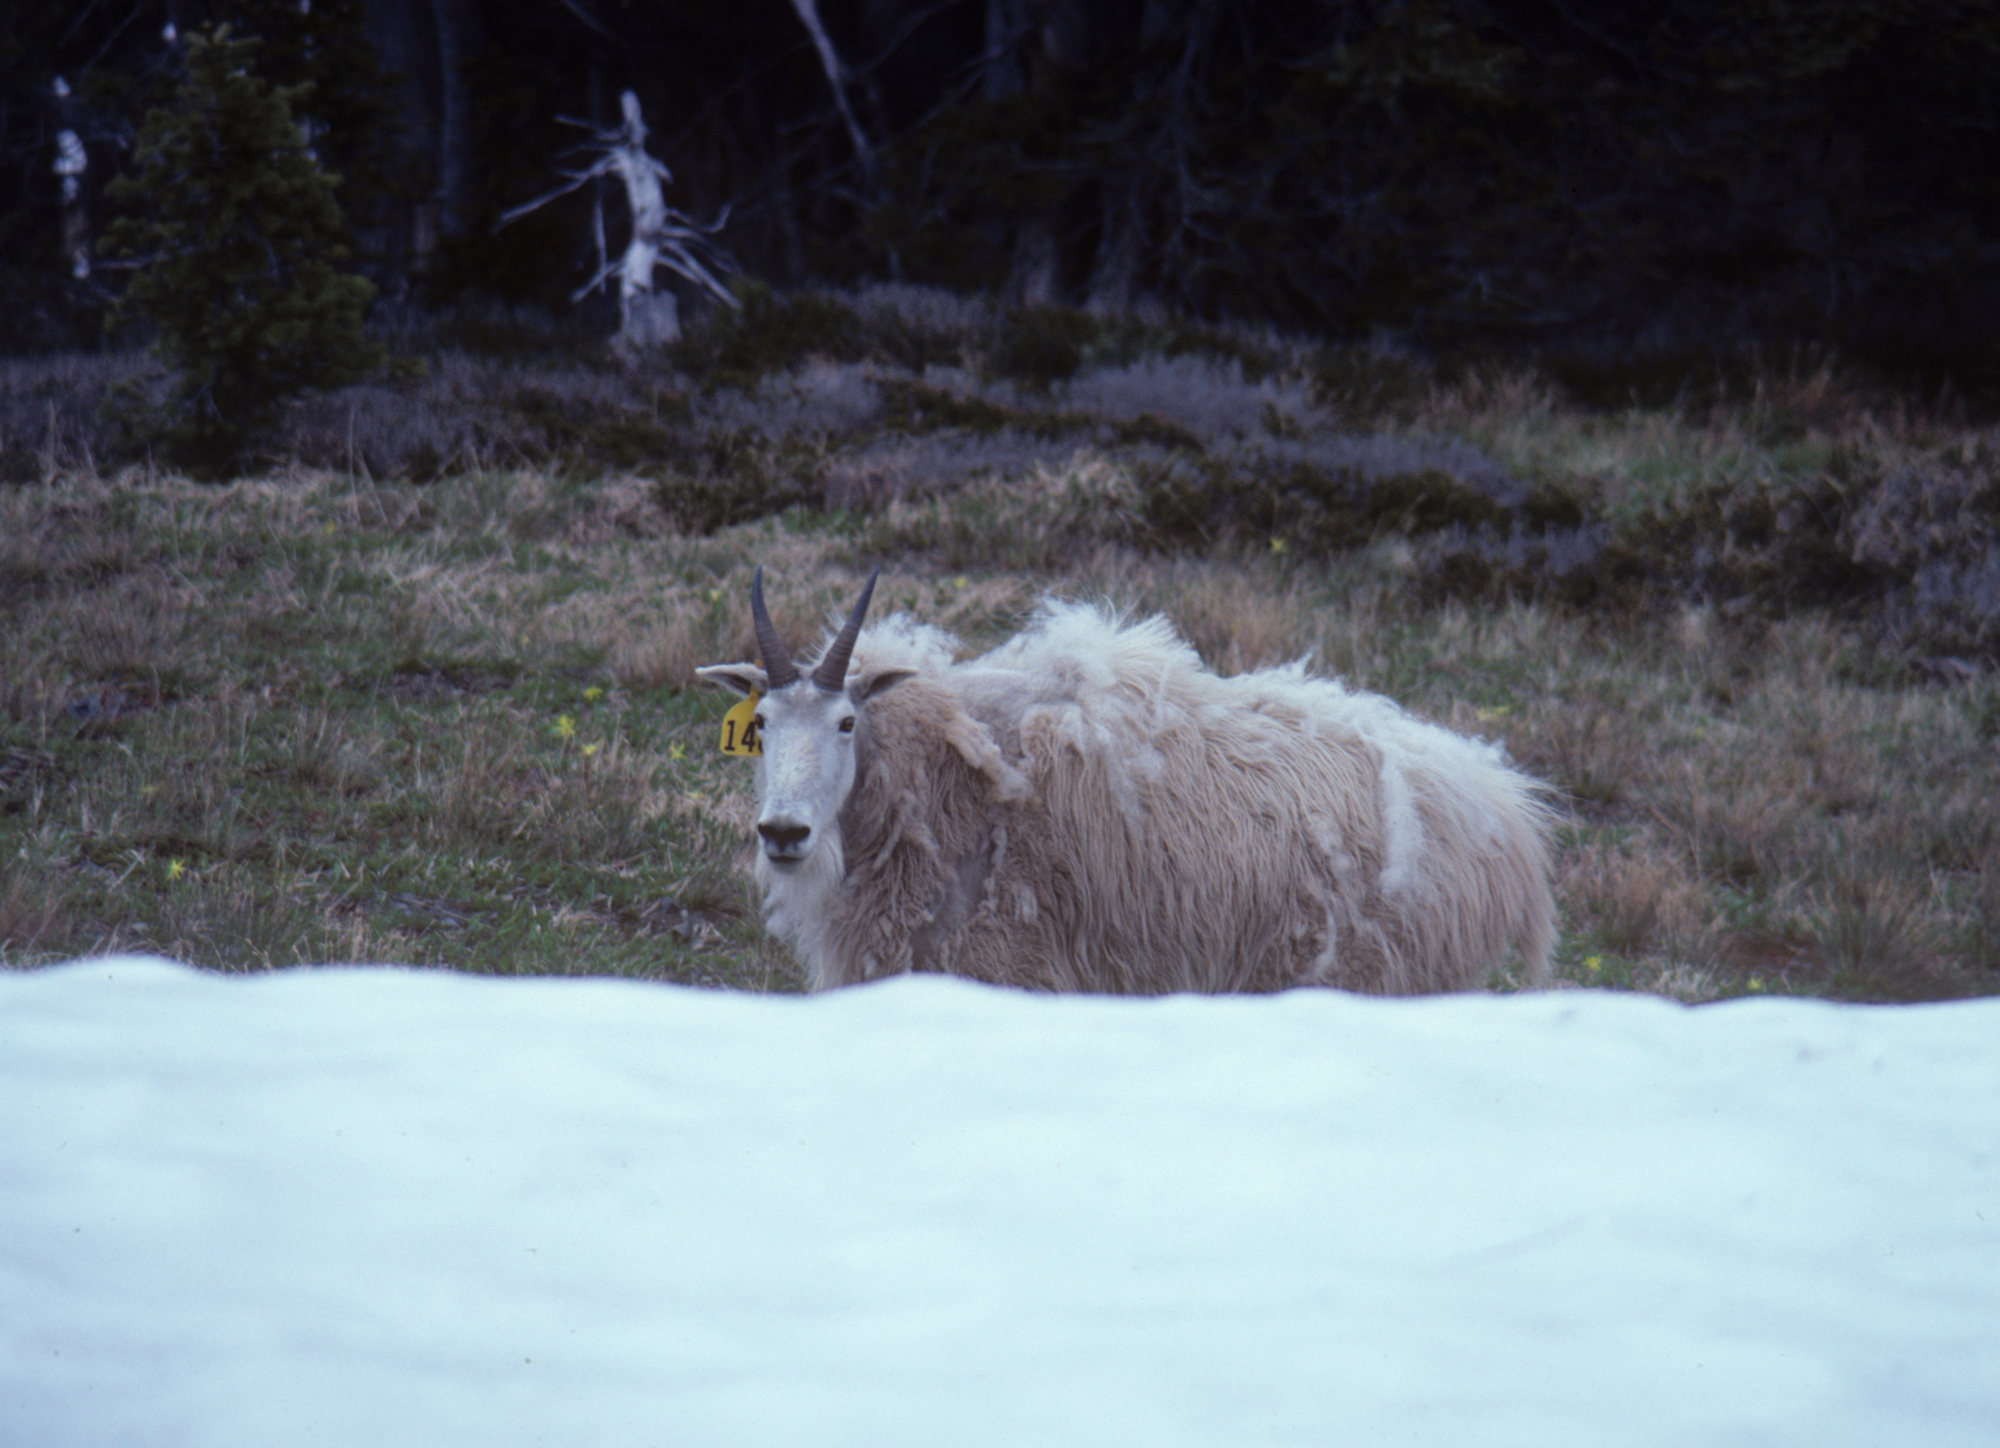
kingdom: Animalia
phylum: Chordata
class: Mammalia
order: Artiodactyla
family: Bovidae
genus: Oreamnos
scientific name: Oreamnos americanus
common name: Mountain goat
